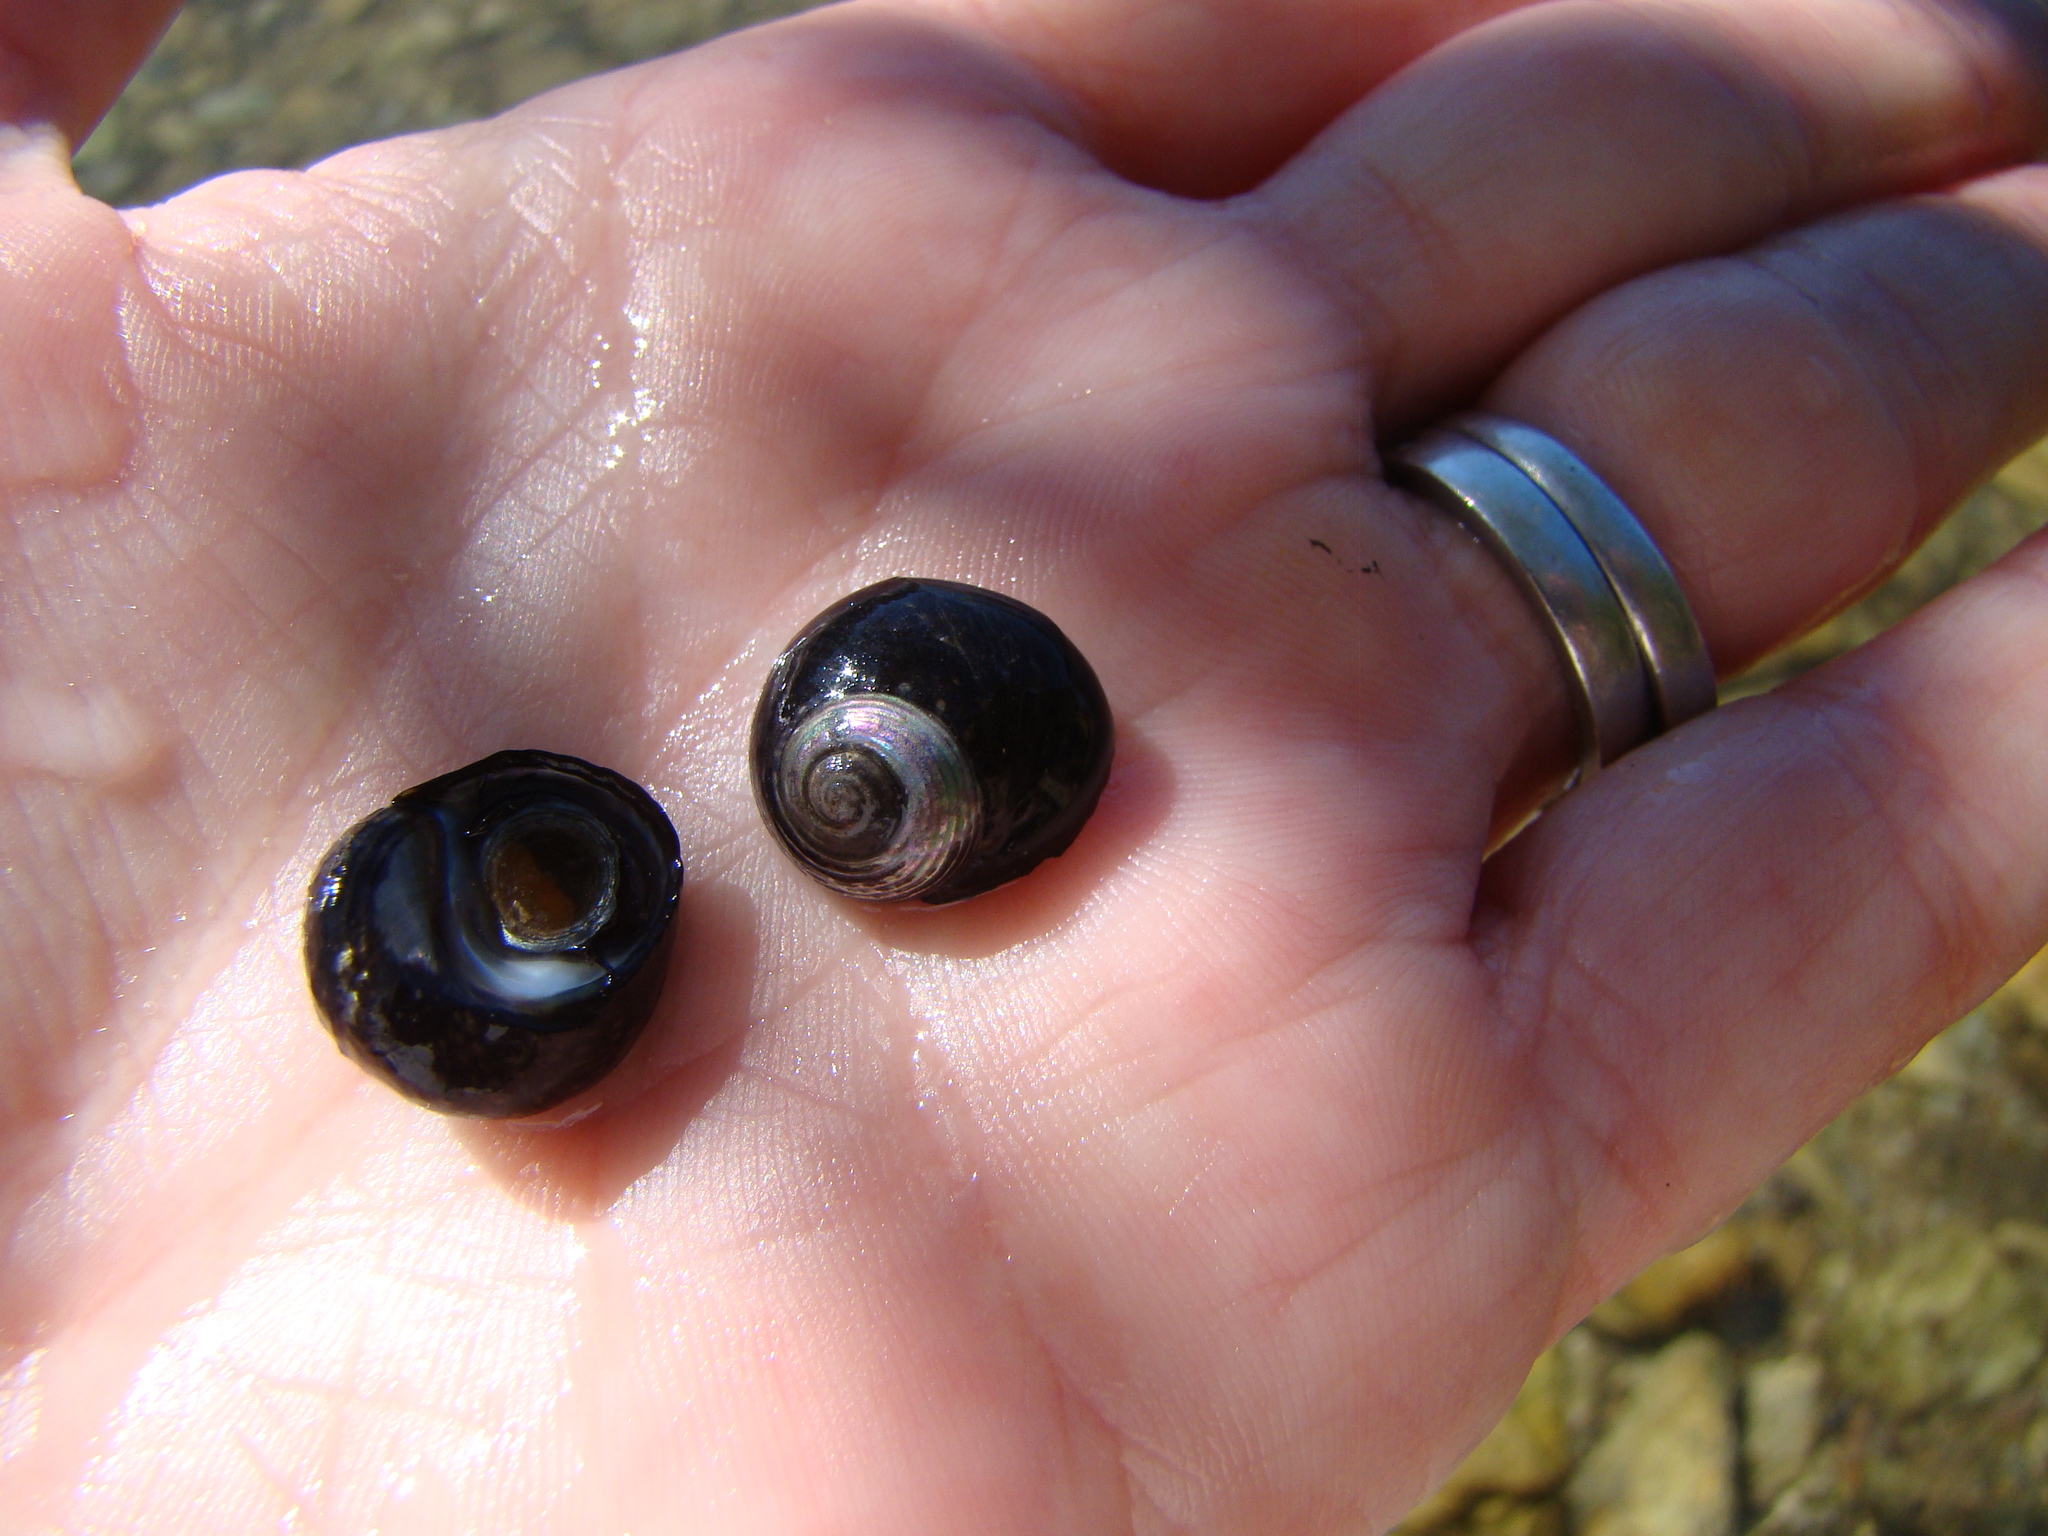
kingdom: Animalia
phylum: Mollusca
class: Gastropoda
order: Trochida
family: Trochidae
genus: Diloma
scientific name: Diloma aridum
